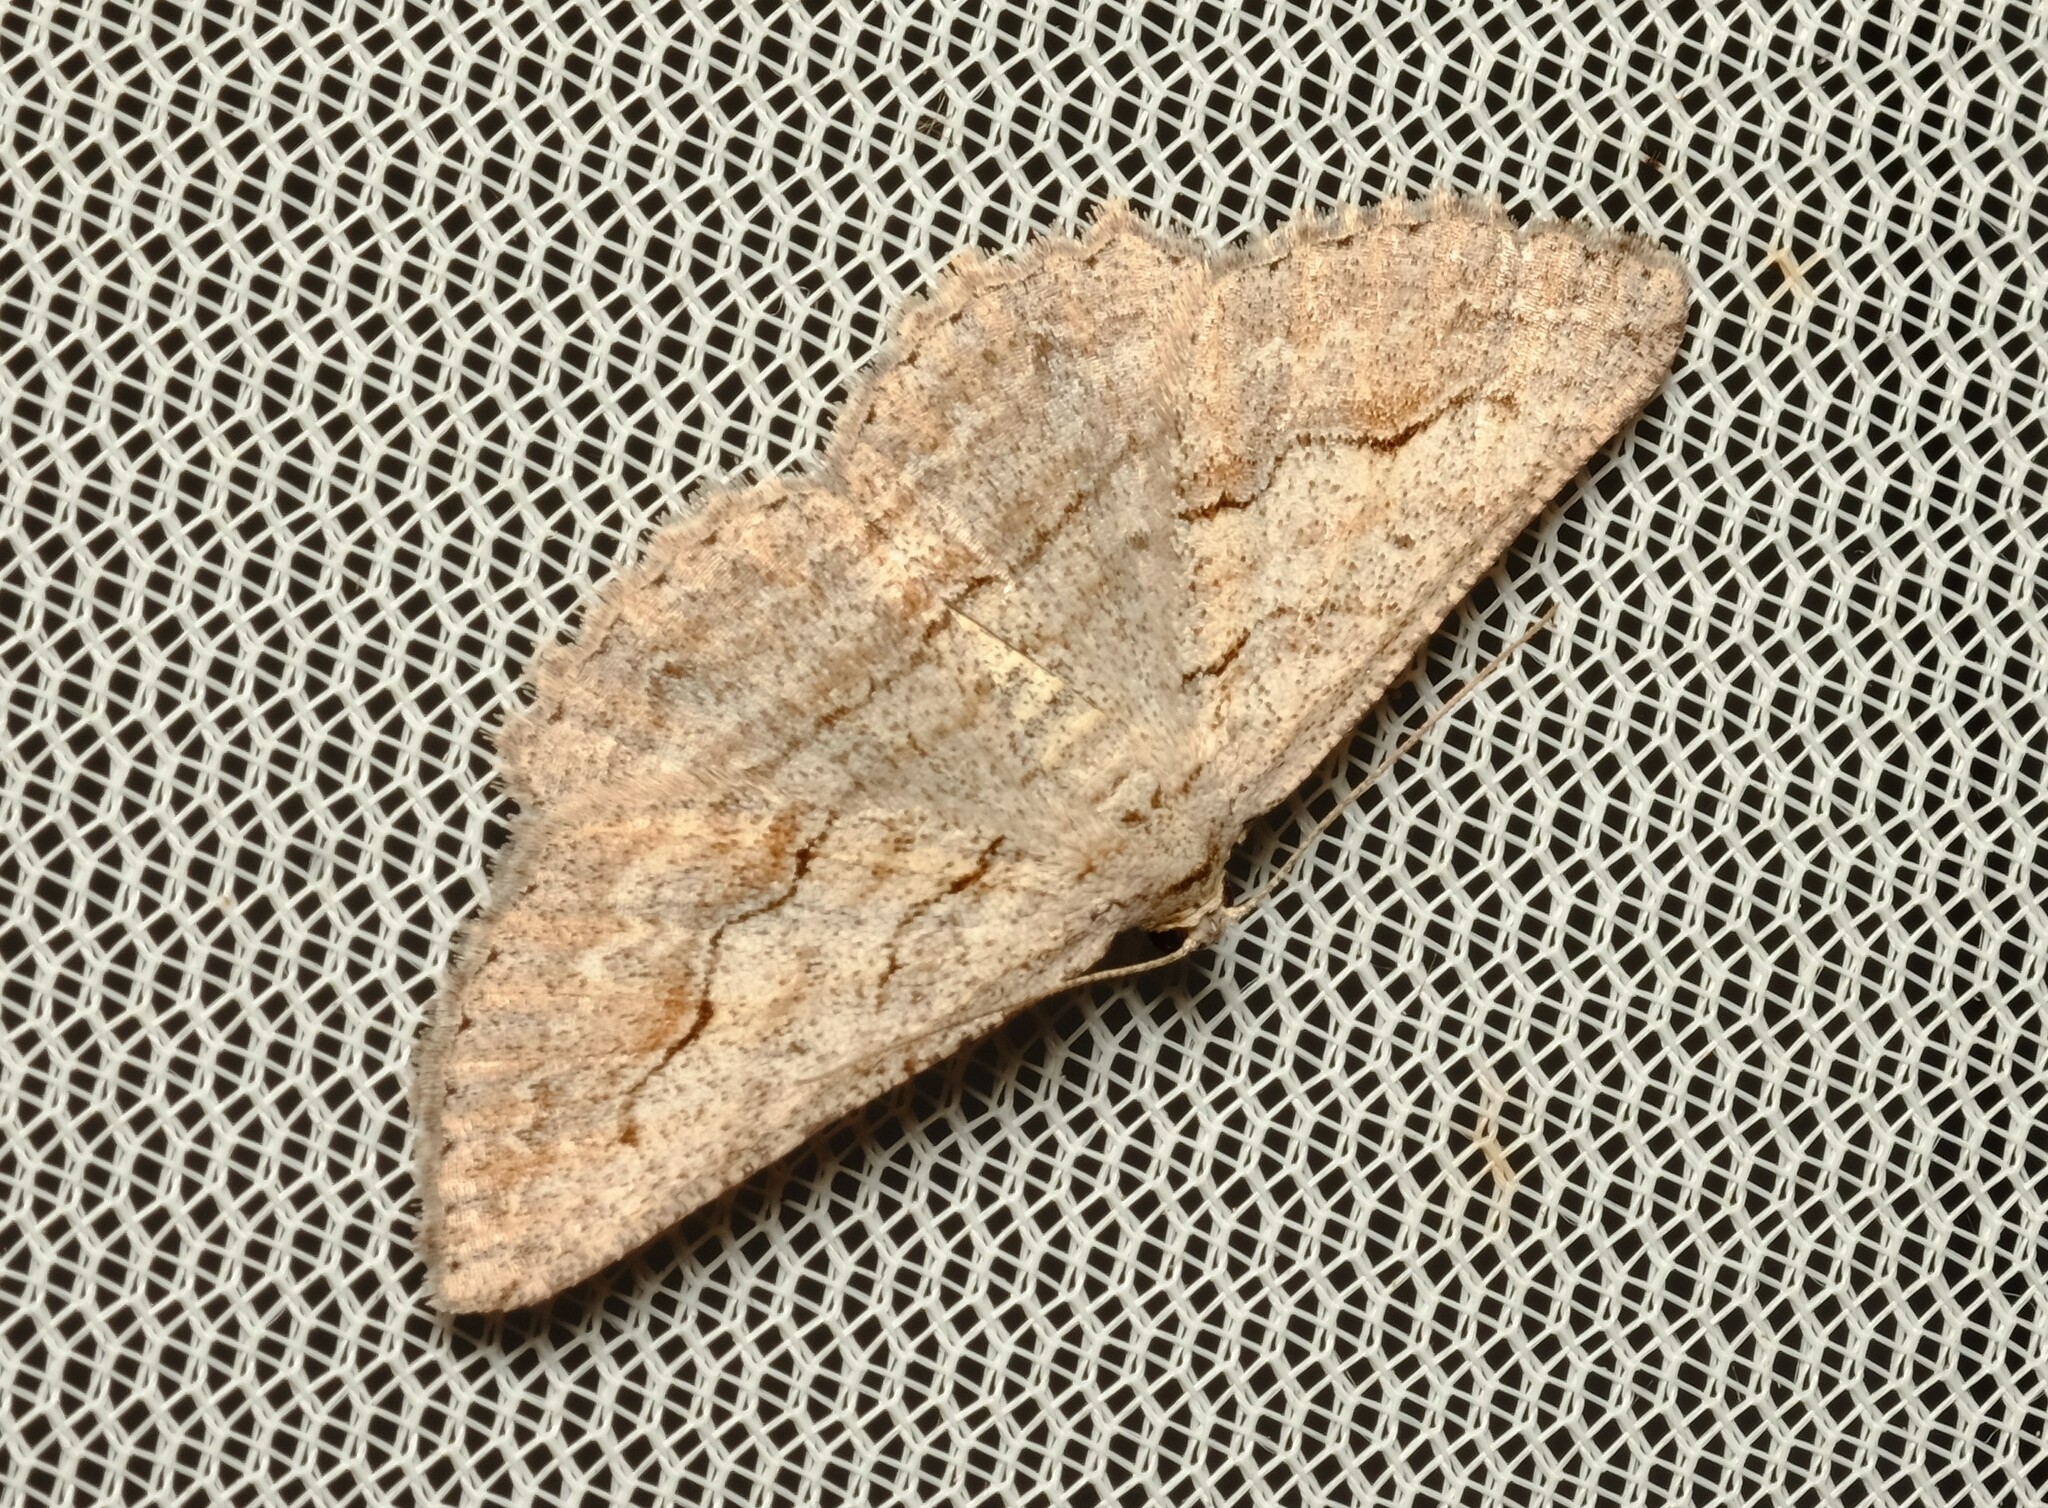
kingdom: Animalia
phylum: Arthropoda
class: Insecta
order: Lepidoptera
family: Geometridae
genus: Syneora
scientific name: Syneora mundifera
